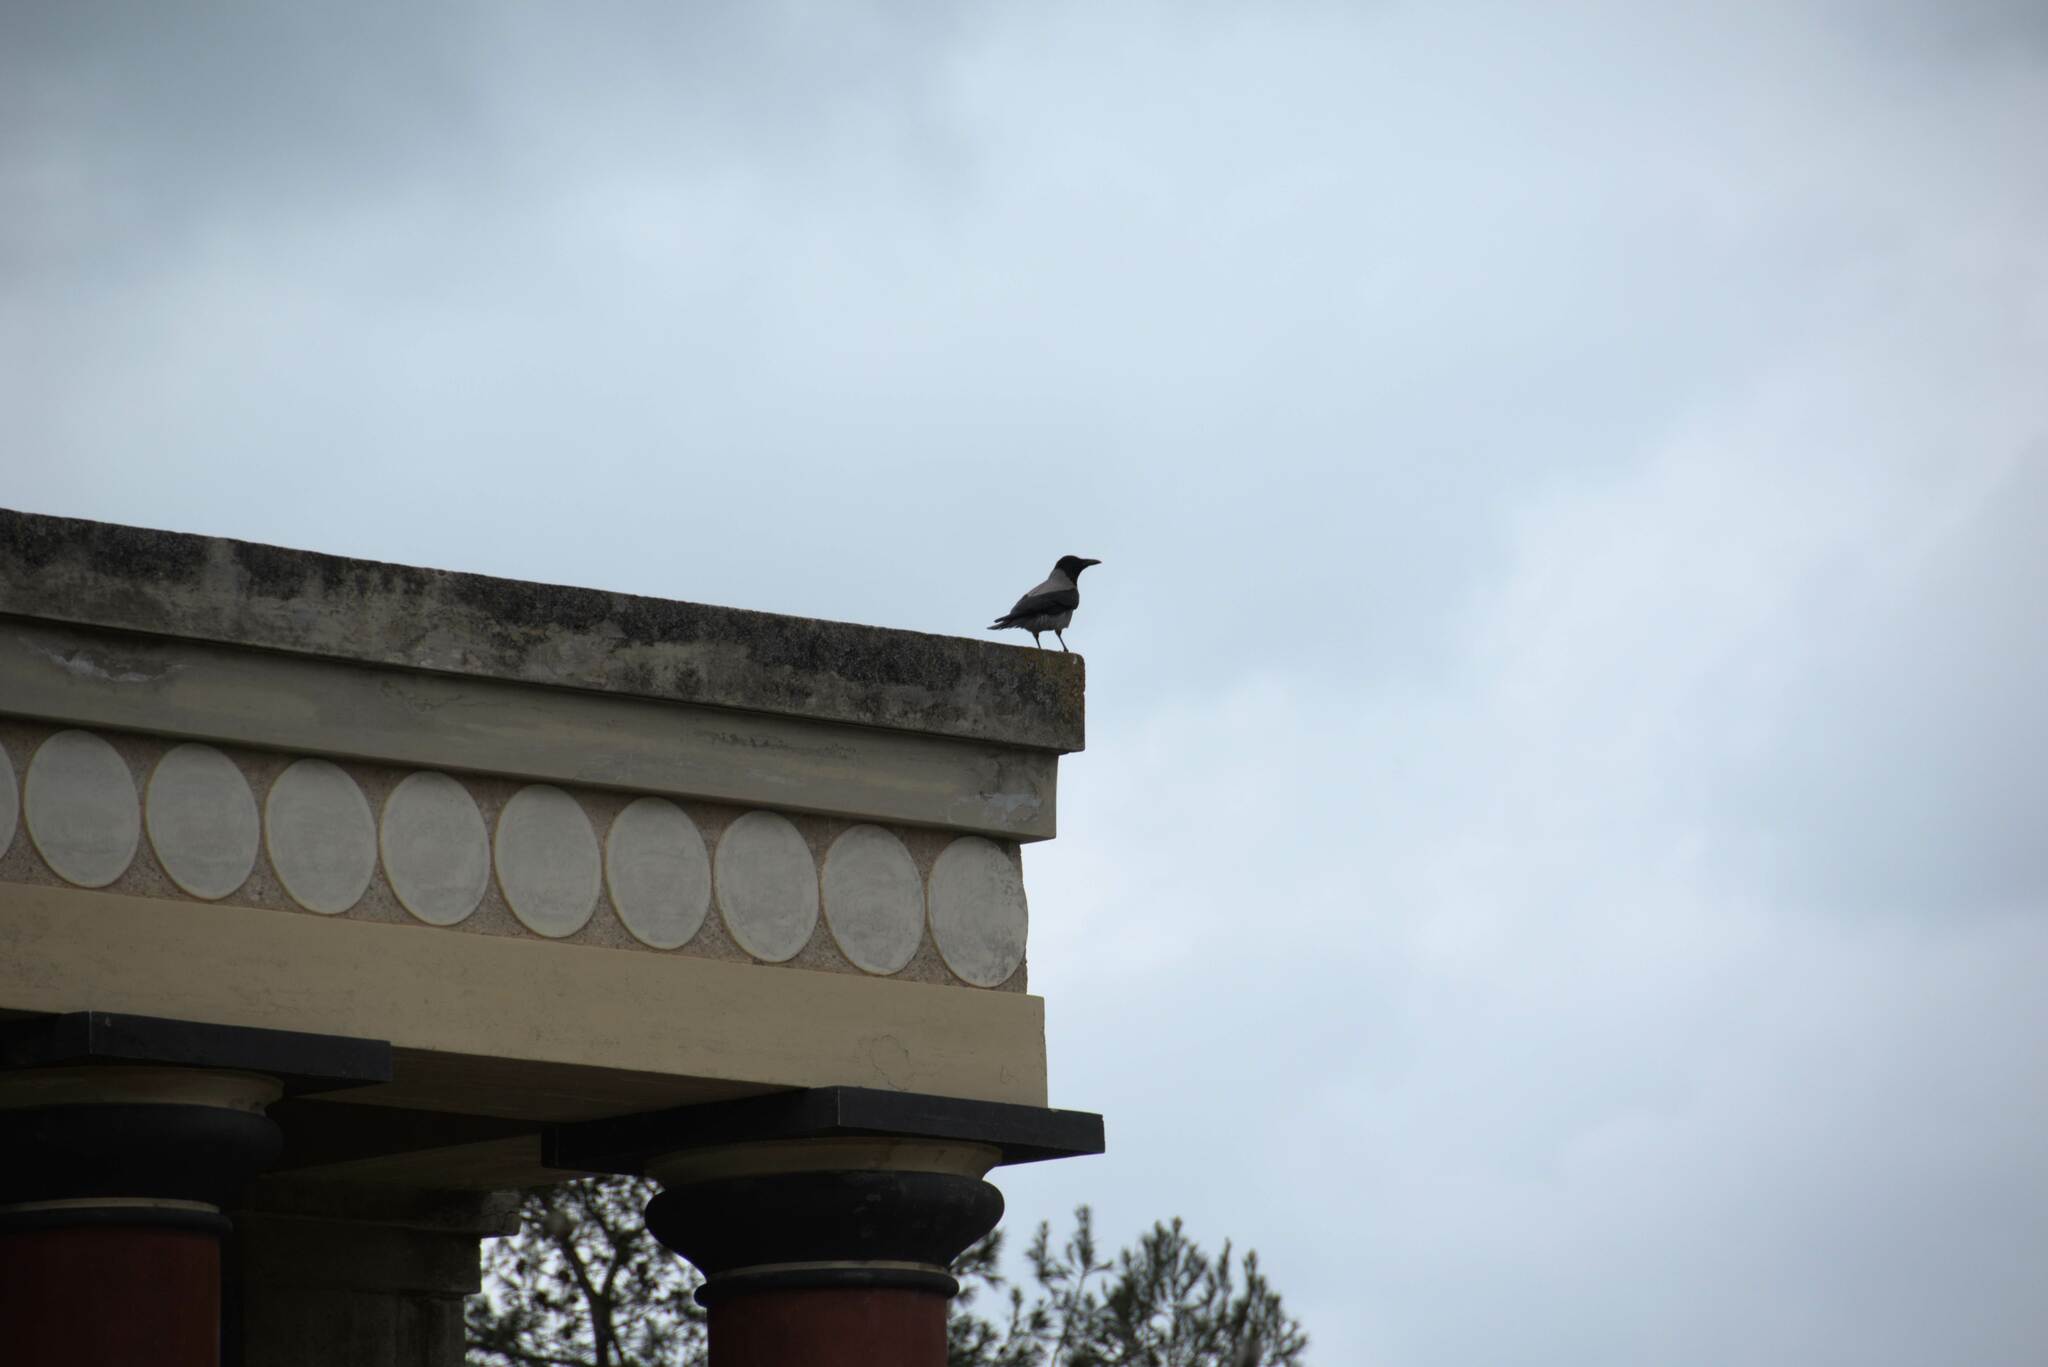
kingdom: Animalia
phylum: Chordata
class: Aves
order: Passeriformes
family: Corvidae
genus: Corvus
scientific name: Corvus cornix
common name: Hooded crow
